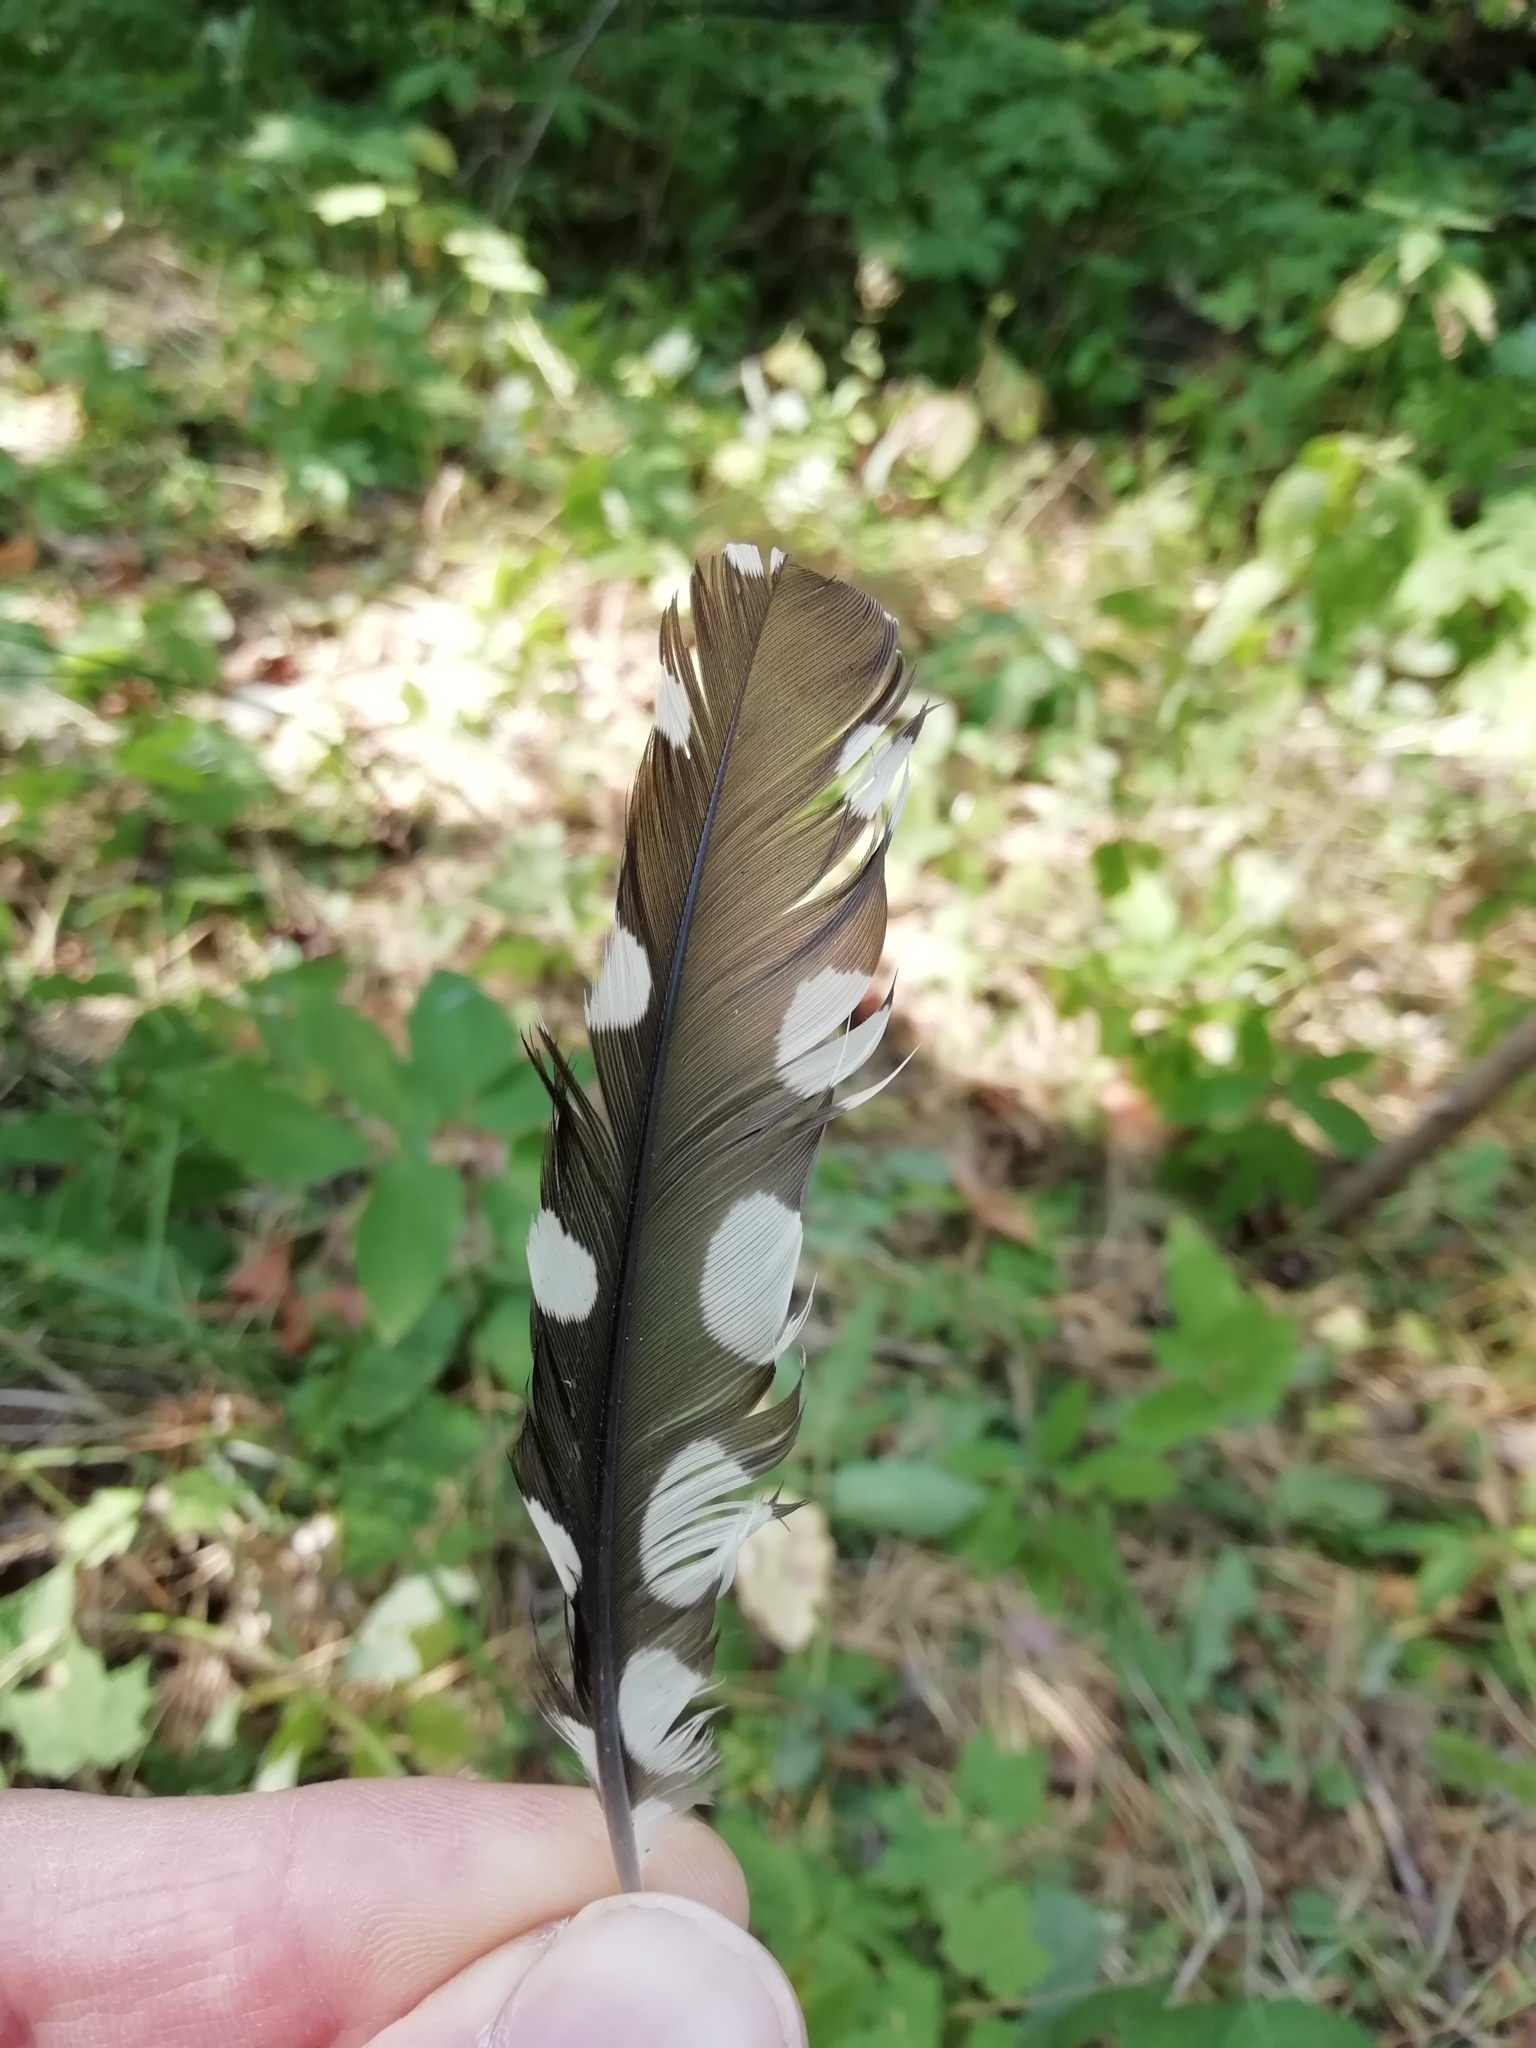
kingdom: Animalia
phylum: Chordata
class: Aves
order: Piciformes
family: Picidae
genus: Dendrocopos
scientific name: Dendrocopos major
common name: Great spotted woodpecker
